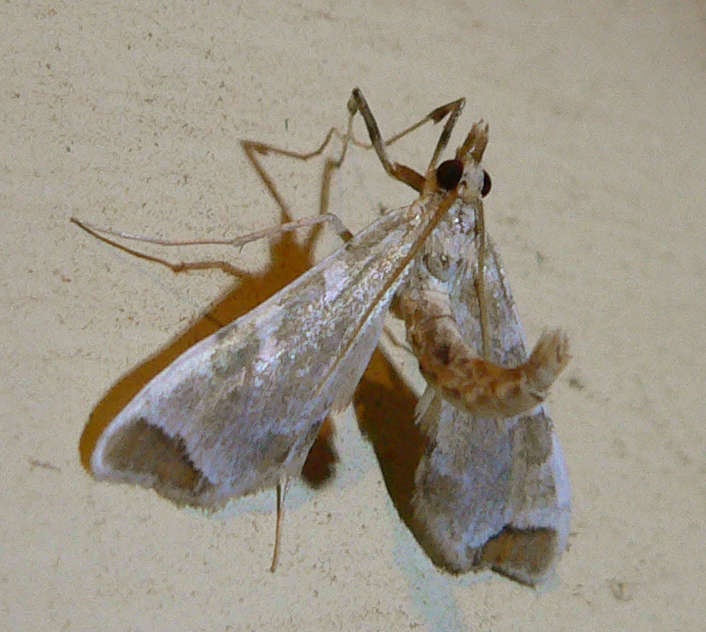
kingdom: Animalia
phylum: Arthropoda
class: Insecta
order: Lepidoptera
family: Crambidae
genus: Sceliodes
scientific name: Sceliodes cordalis
